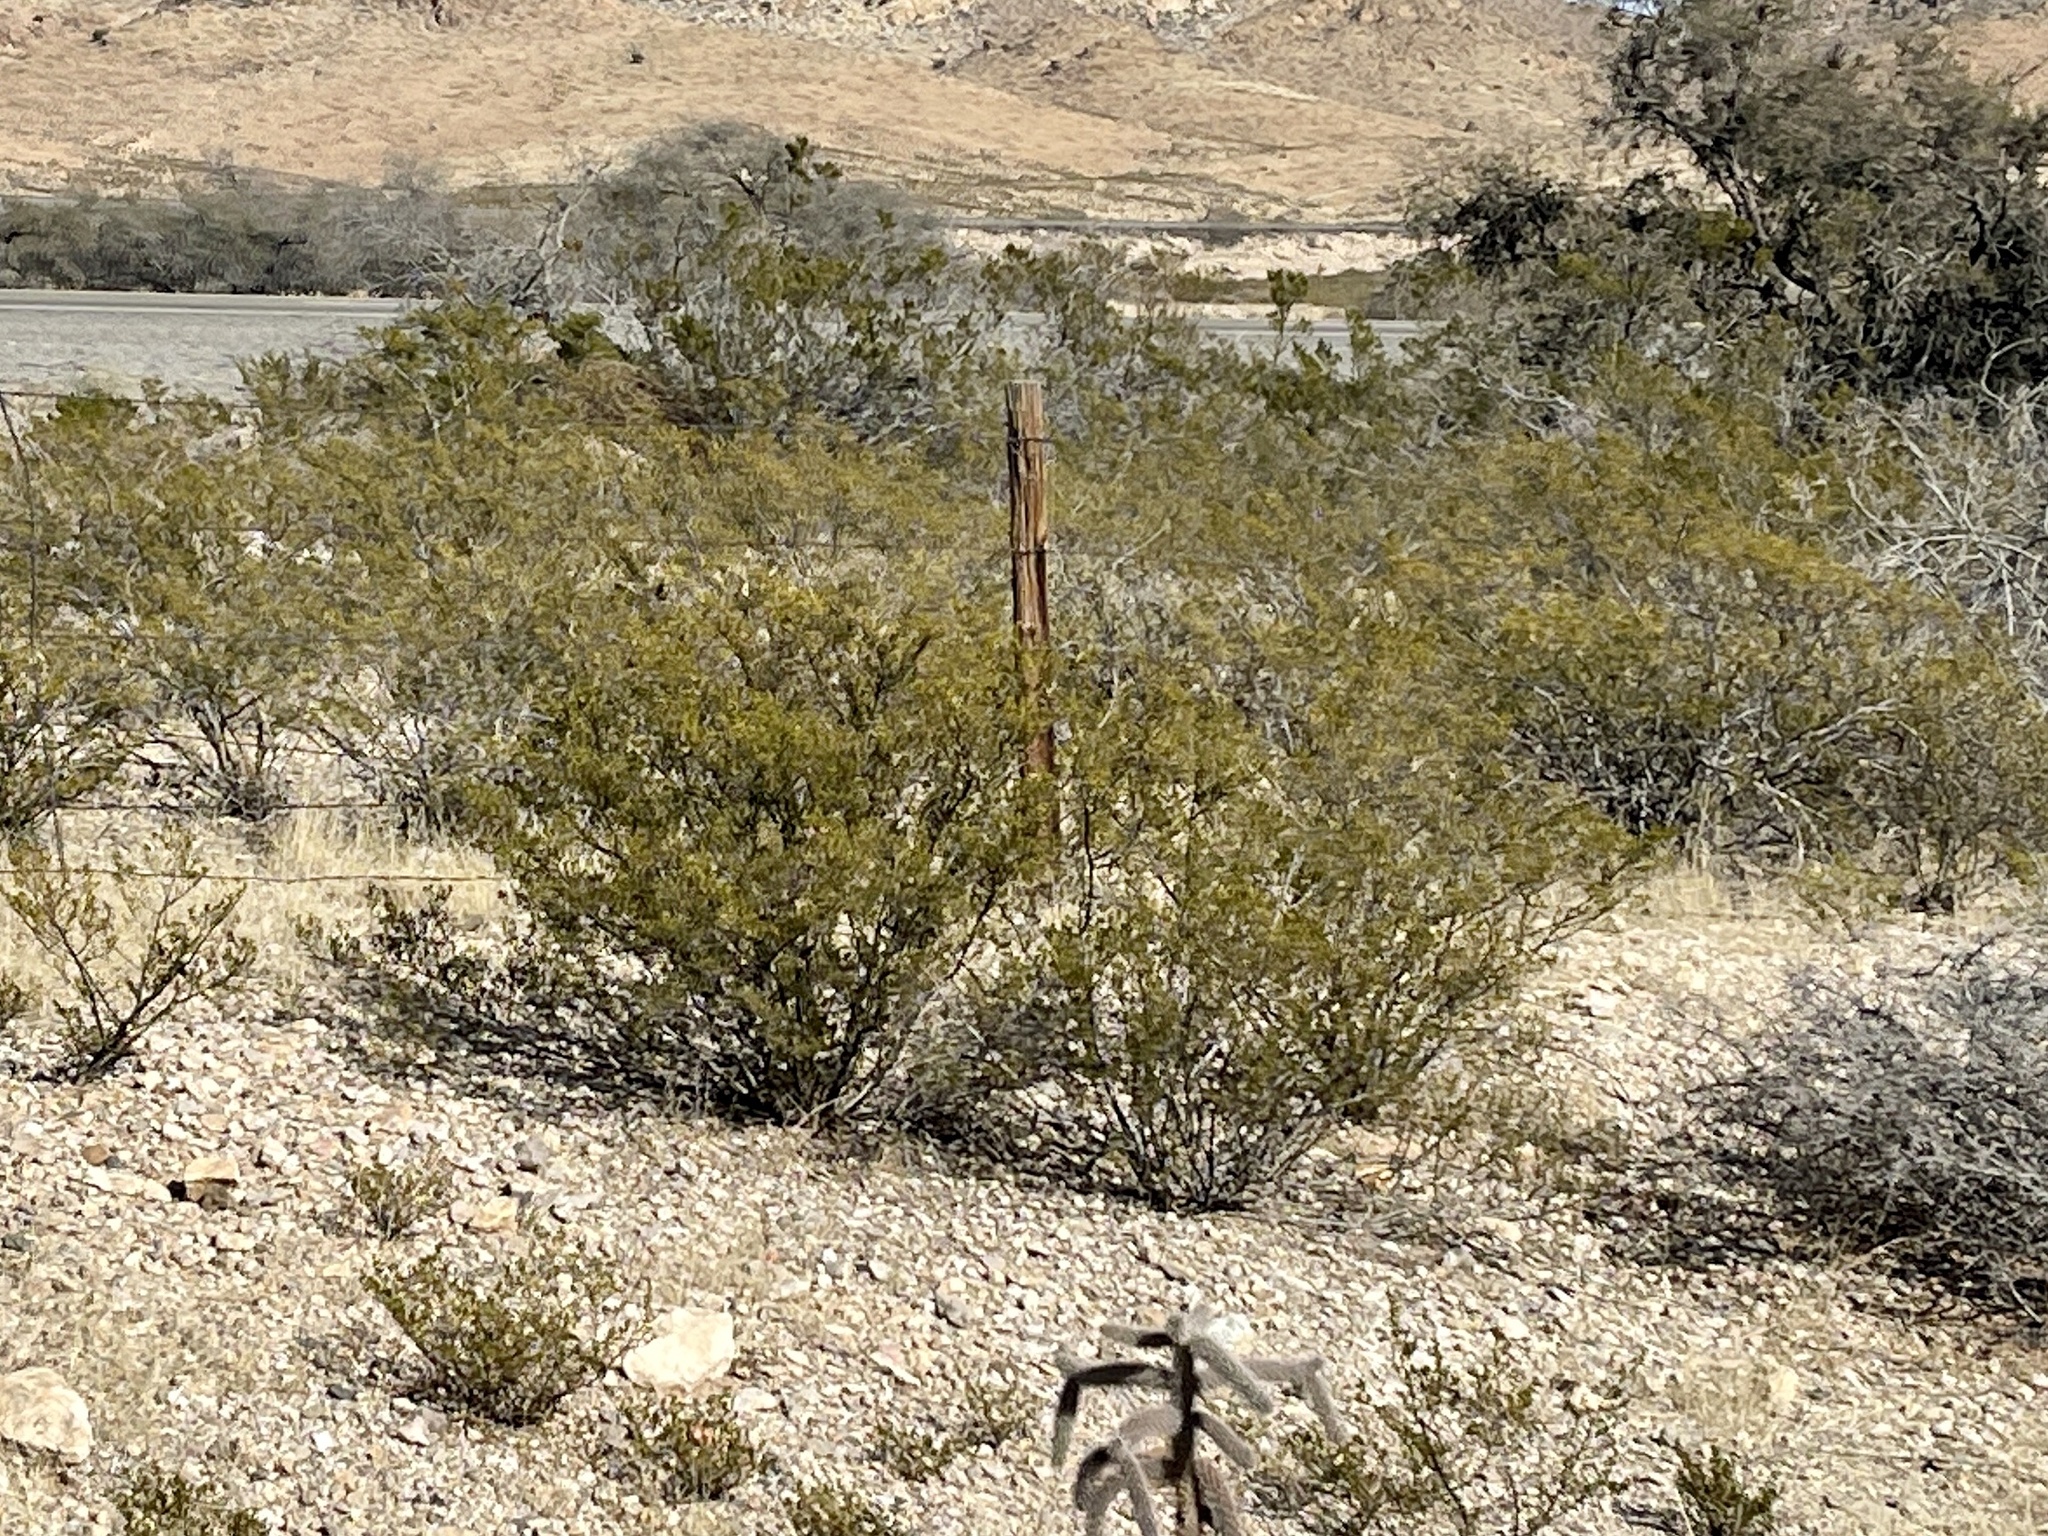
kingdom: Plantae
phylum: Tracheophyta
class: Magnoliopsida
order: Zygophyllales
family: Zygophyllaceae
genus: Larrea
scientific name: Larrea tridentata
